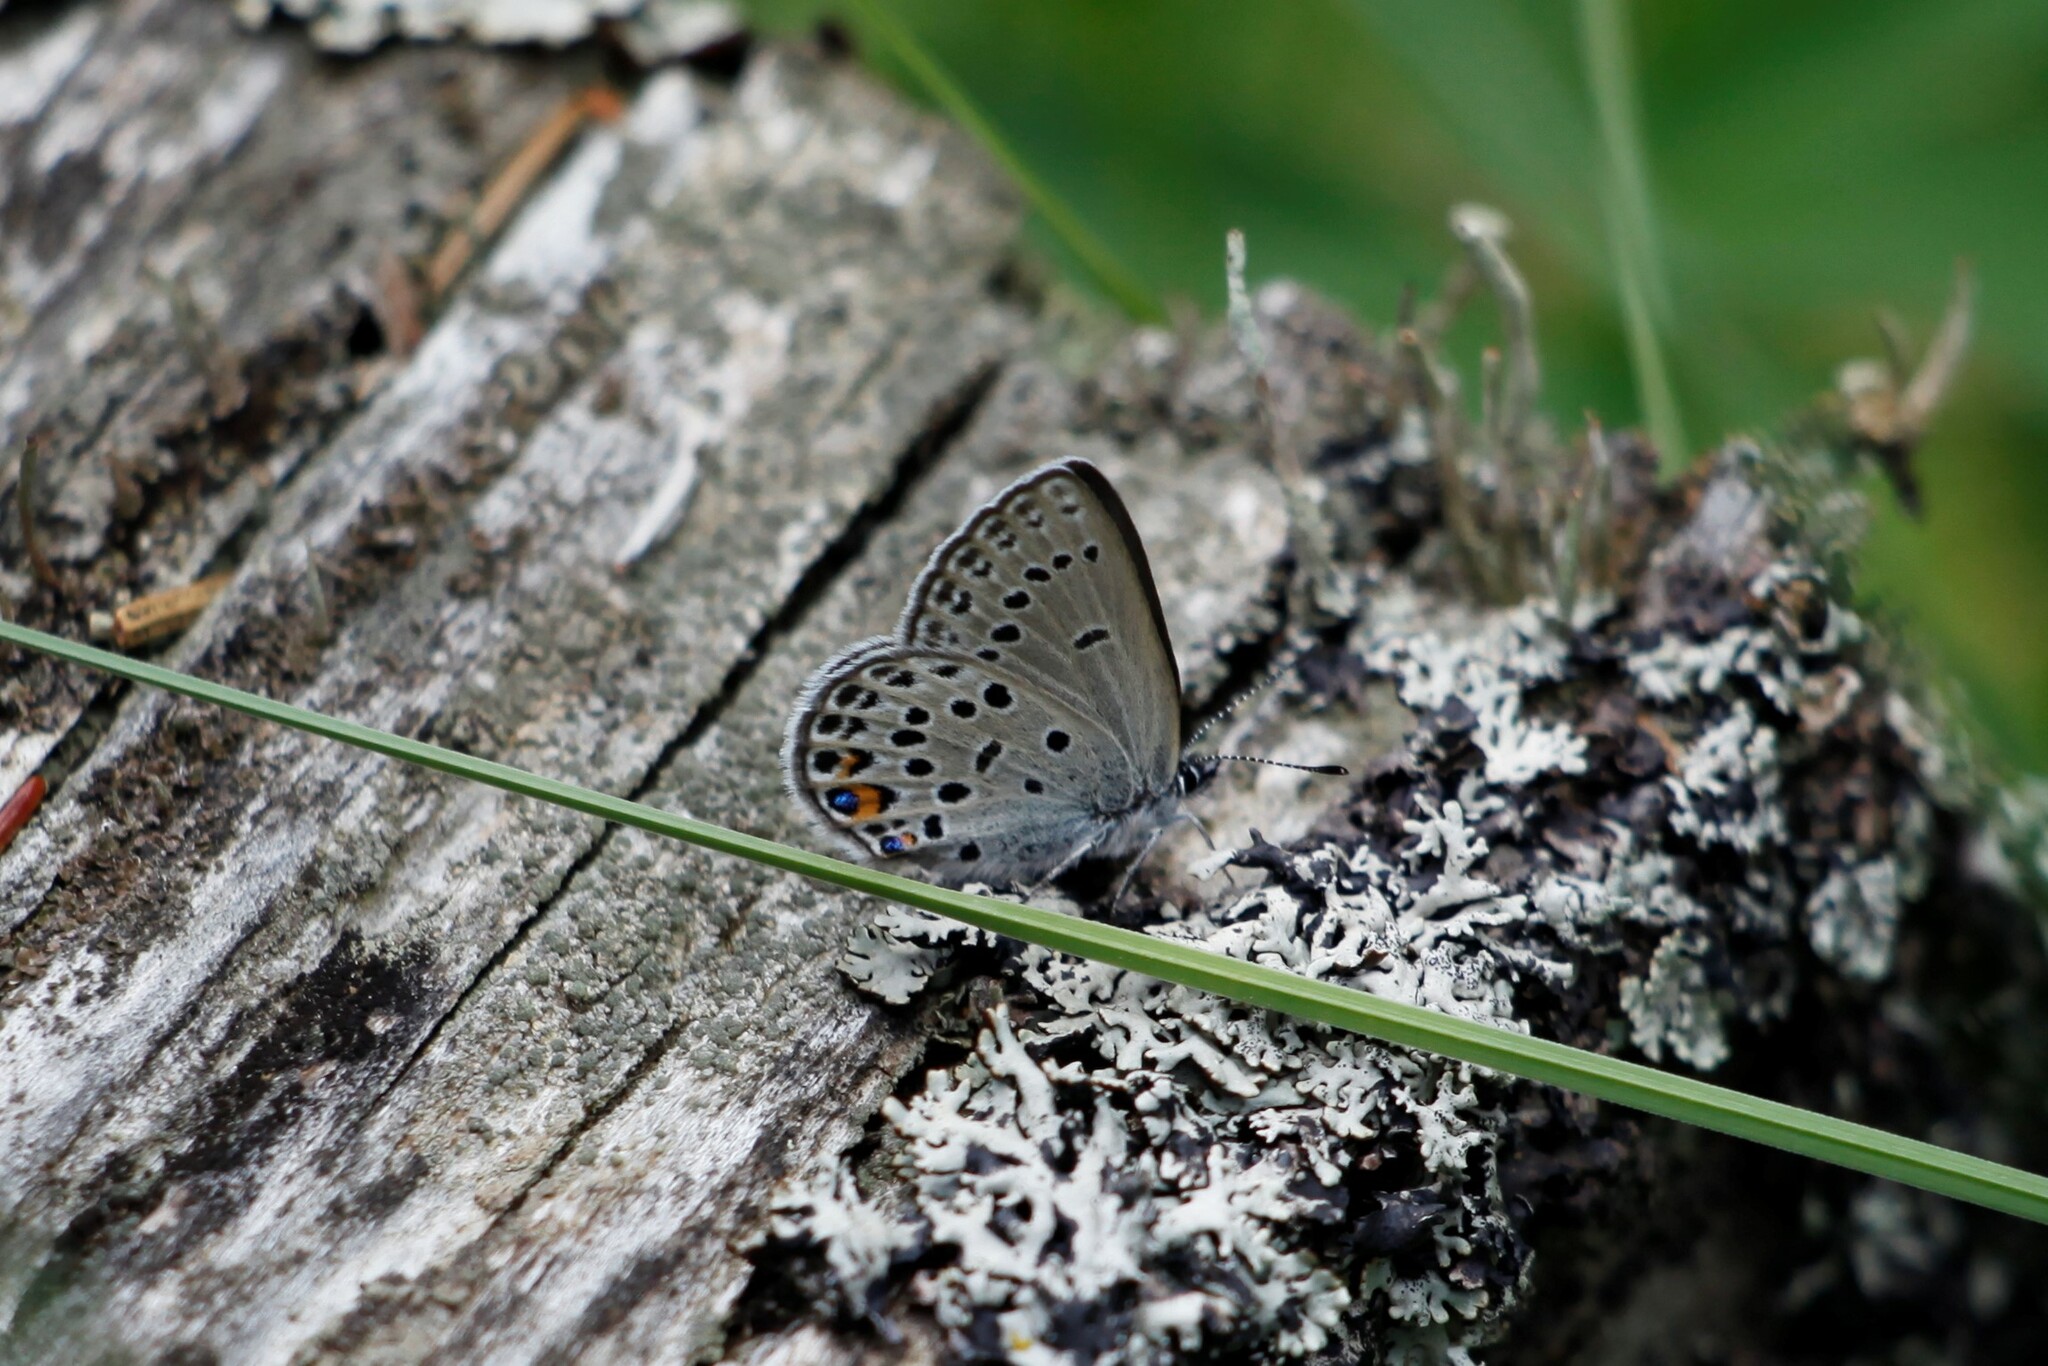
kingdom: Animalia
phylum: Arthropoda
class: Insecta
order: Lepidoptera
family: Lycaenidae
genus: Vacciniina
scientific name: Vacciniina optilete
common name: Cranberry blue
